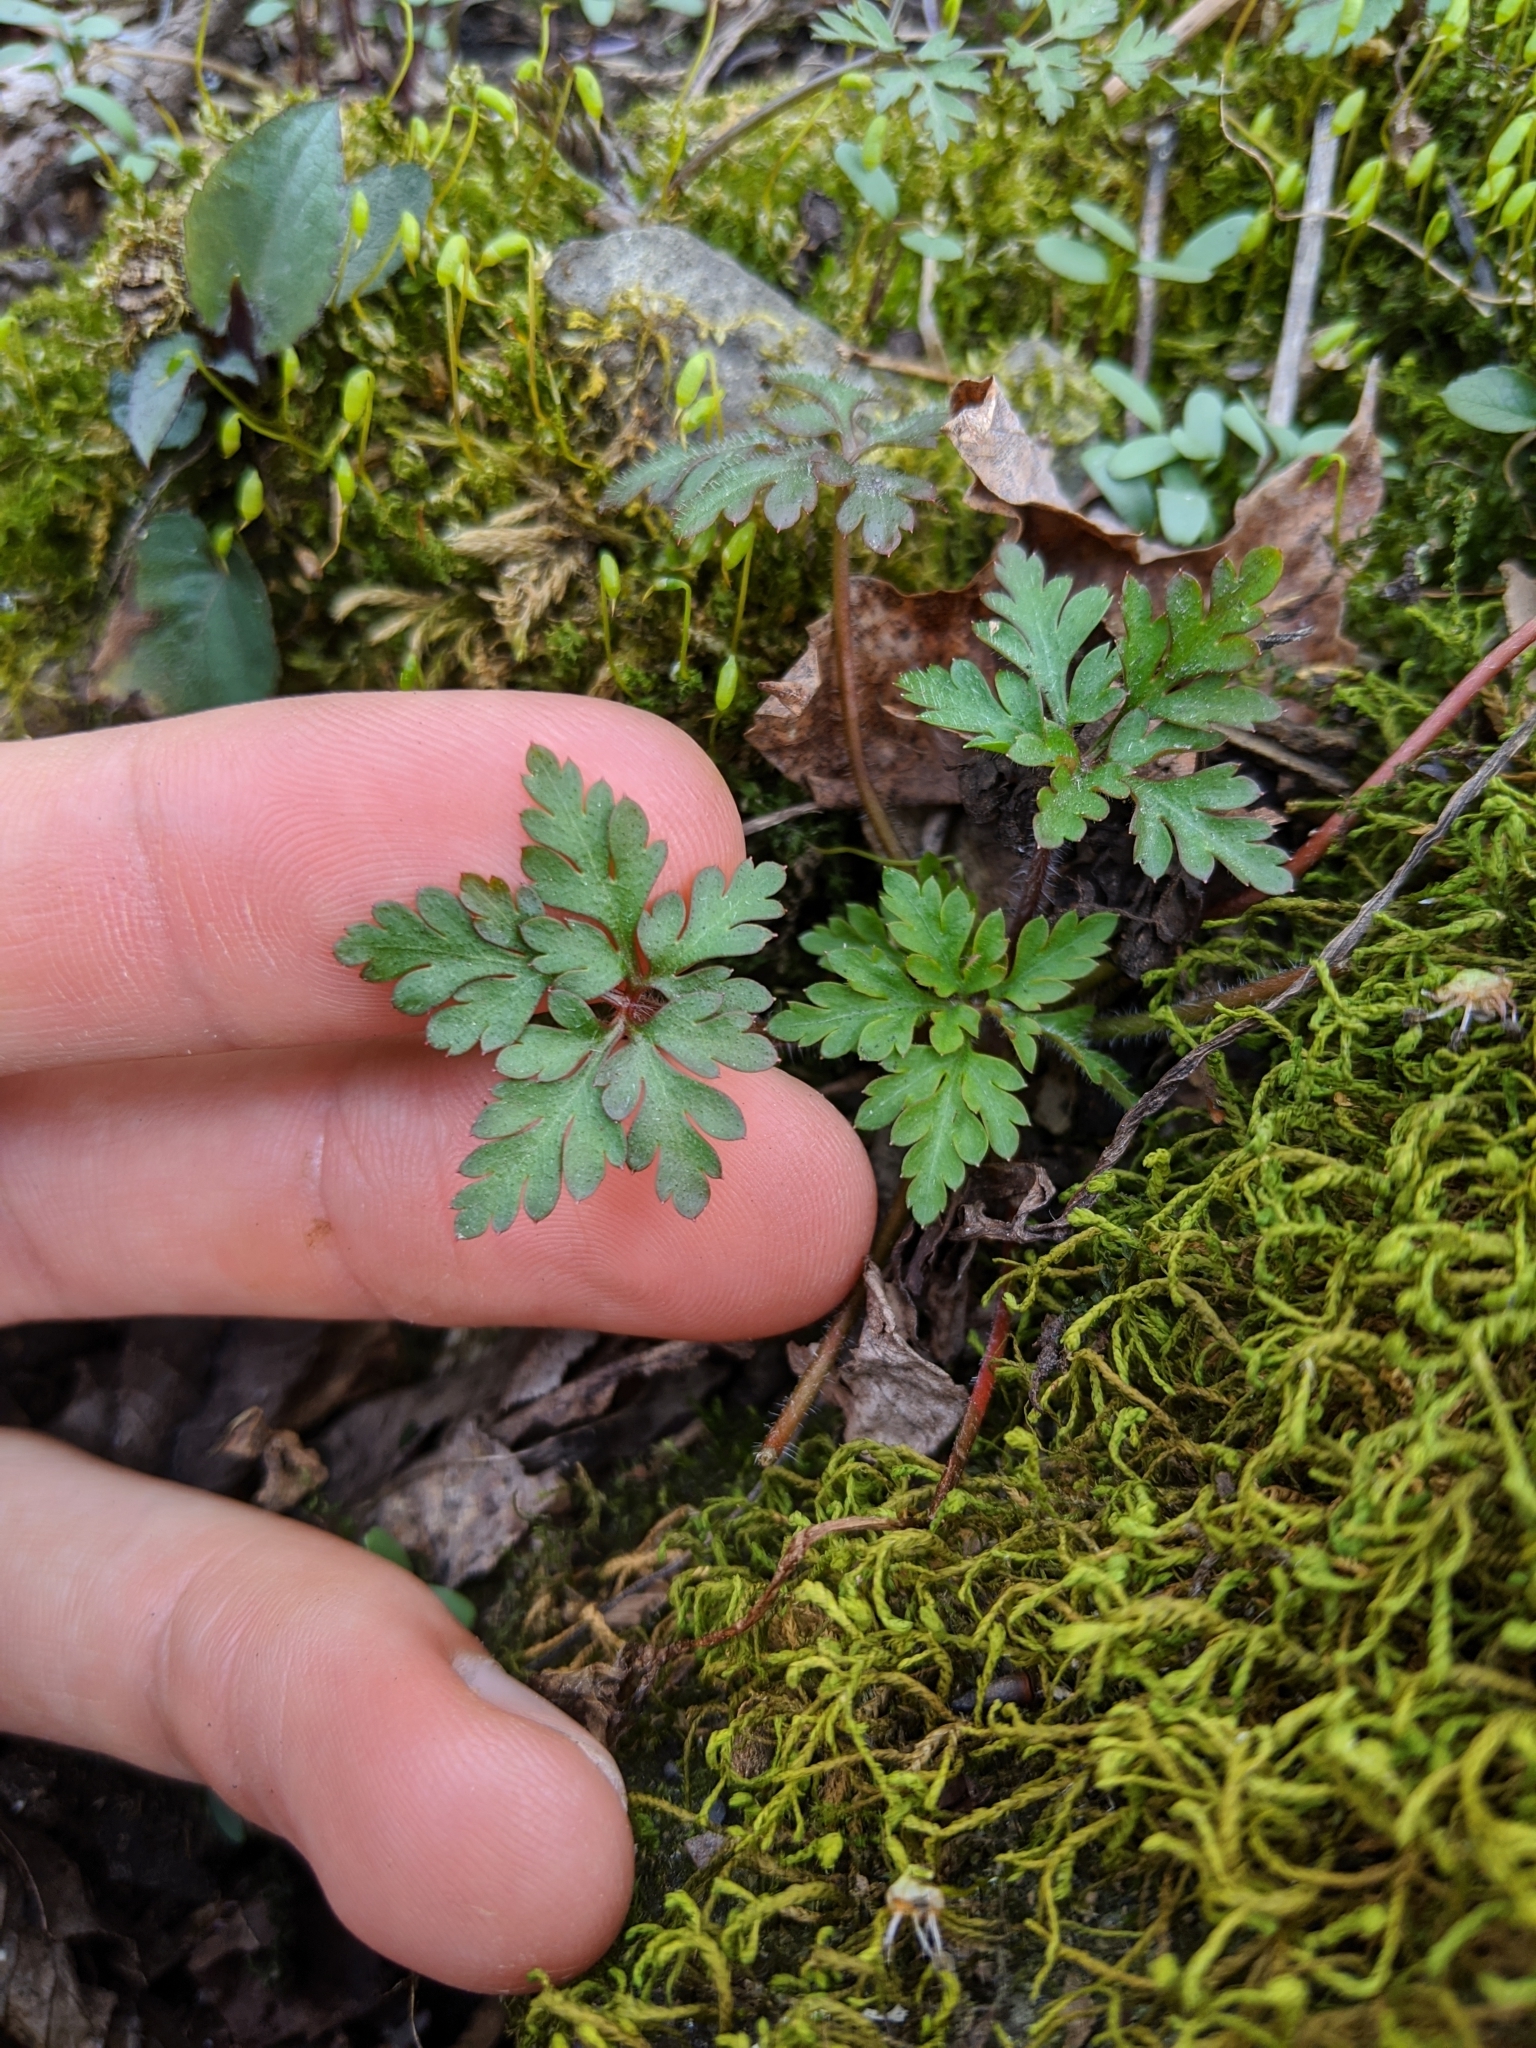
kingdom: Plantae
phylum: Tracheophyta
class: Magnoliopsida
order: Geraniales
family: Geraniaceae
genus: Geranium
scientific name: Geranium robertianum
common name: Herb-robert
